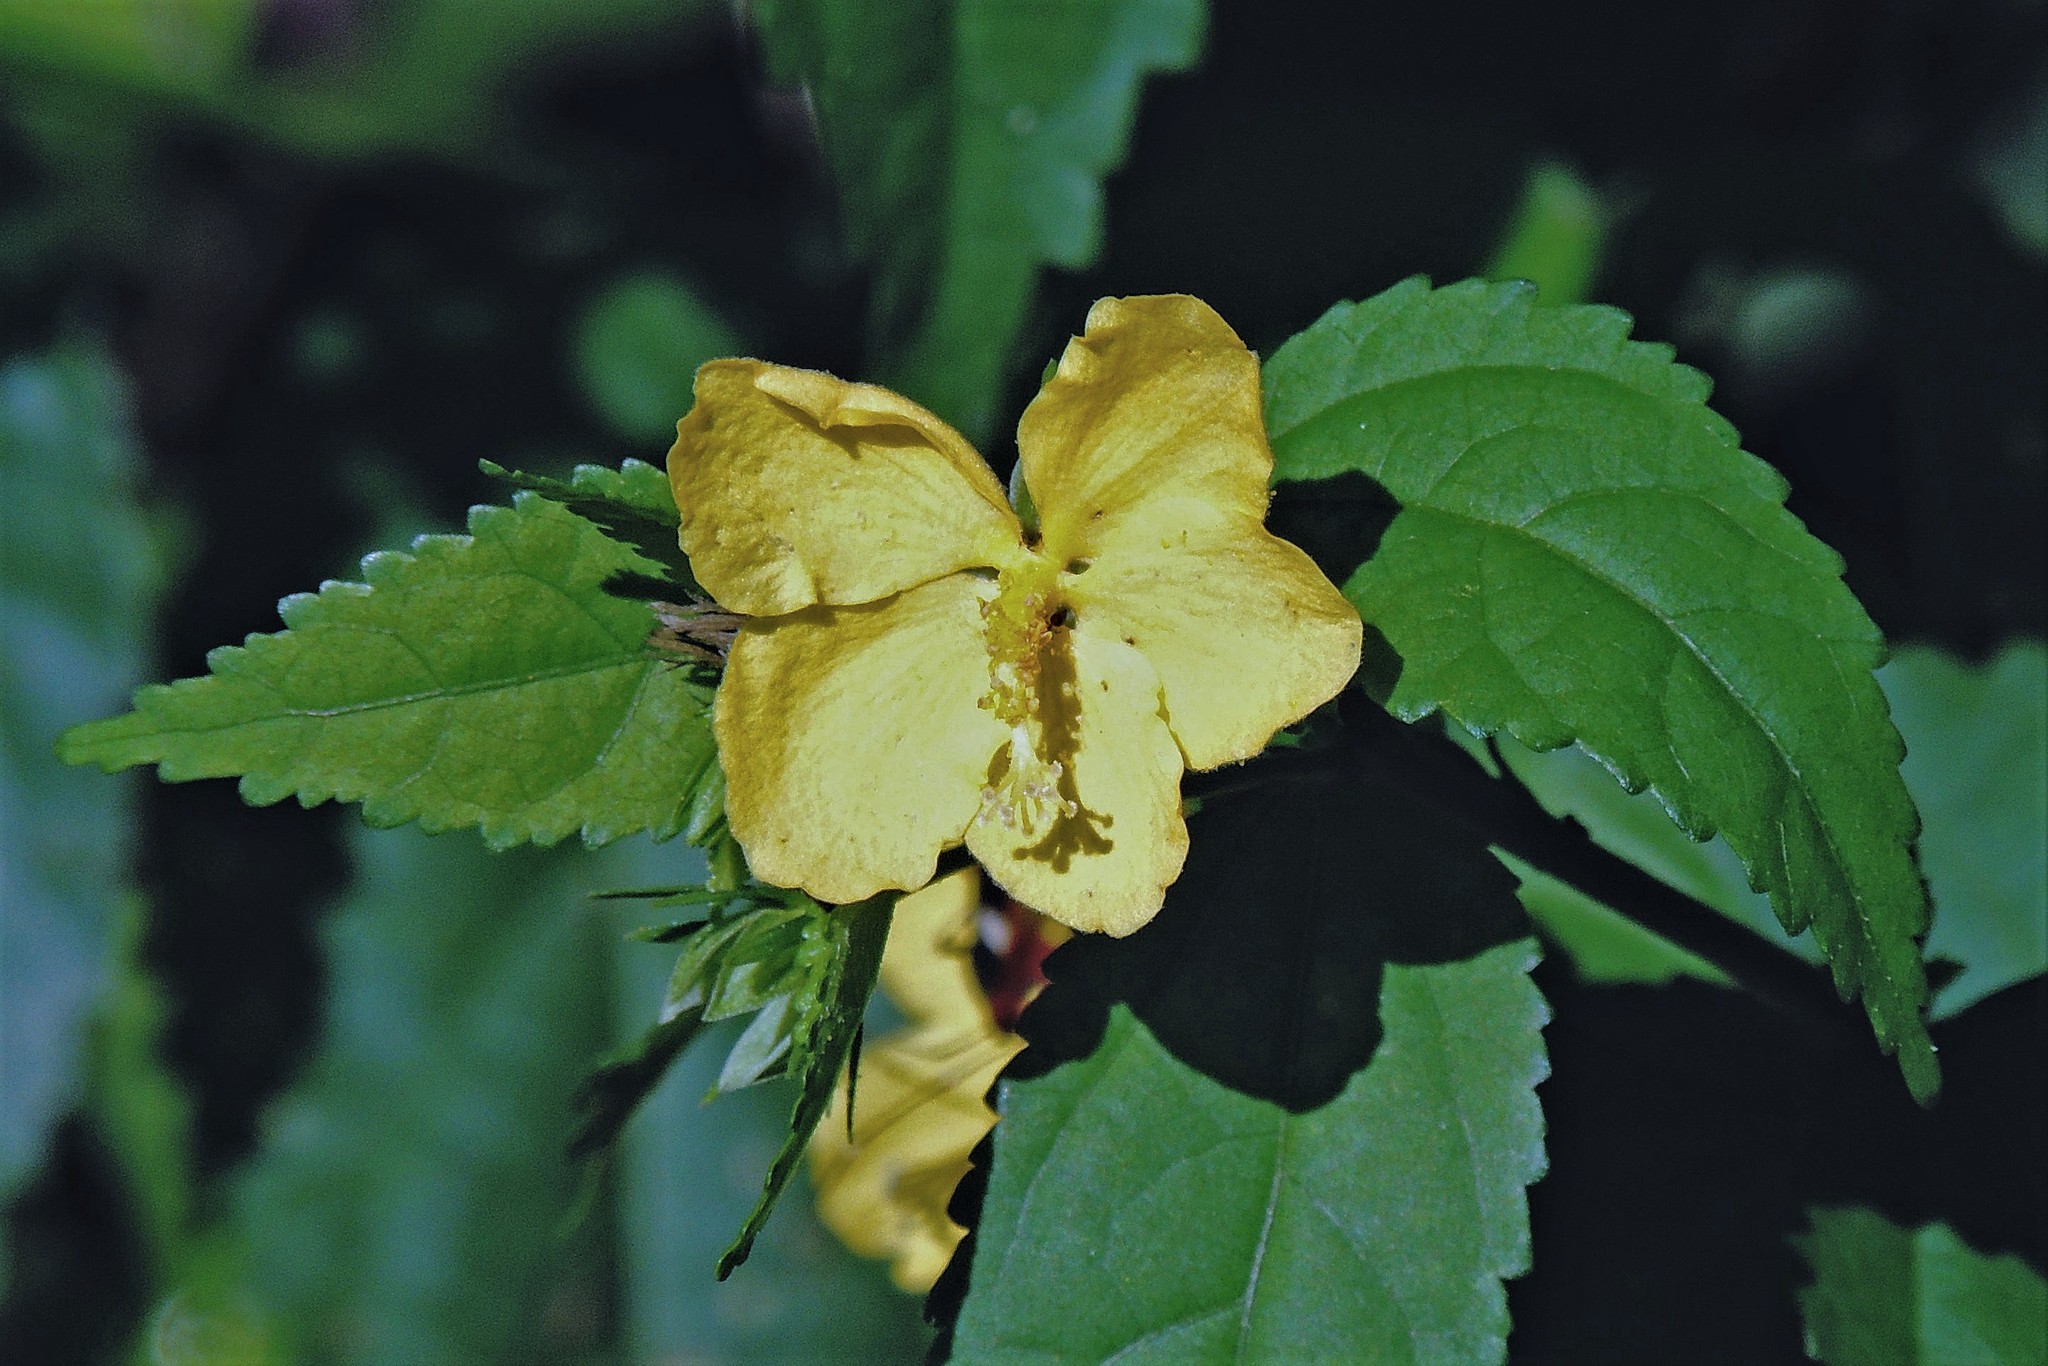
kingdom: Plantae
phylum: Tracheophyta
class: Magnoliopsida
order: Malvales
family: Malvaceae
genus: Pavonia
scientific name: Pavonia sepium
